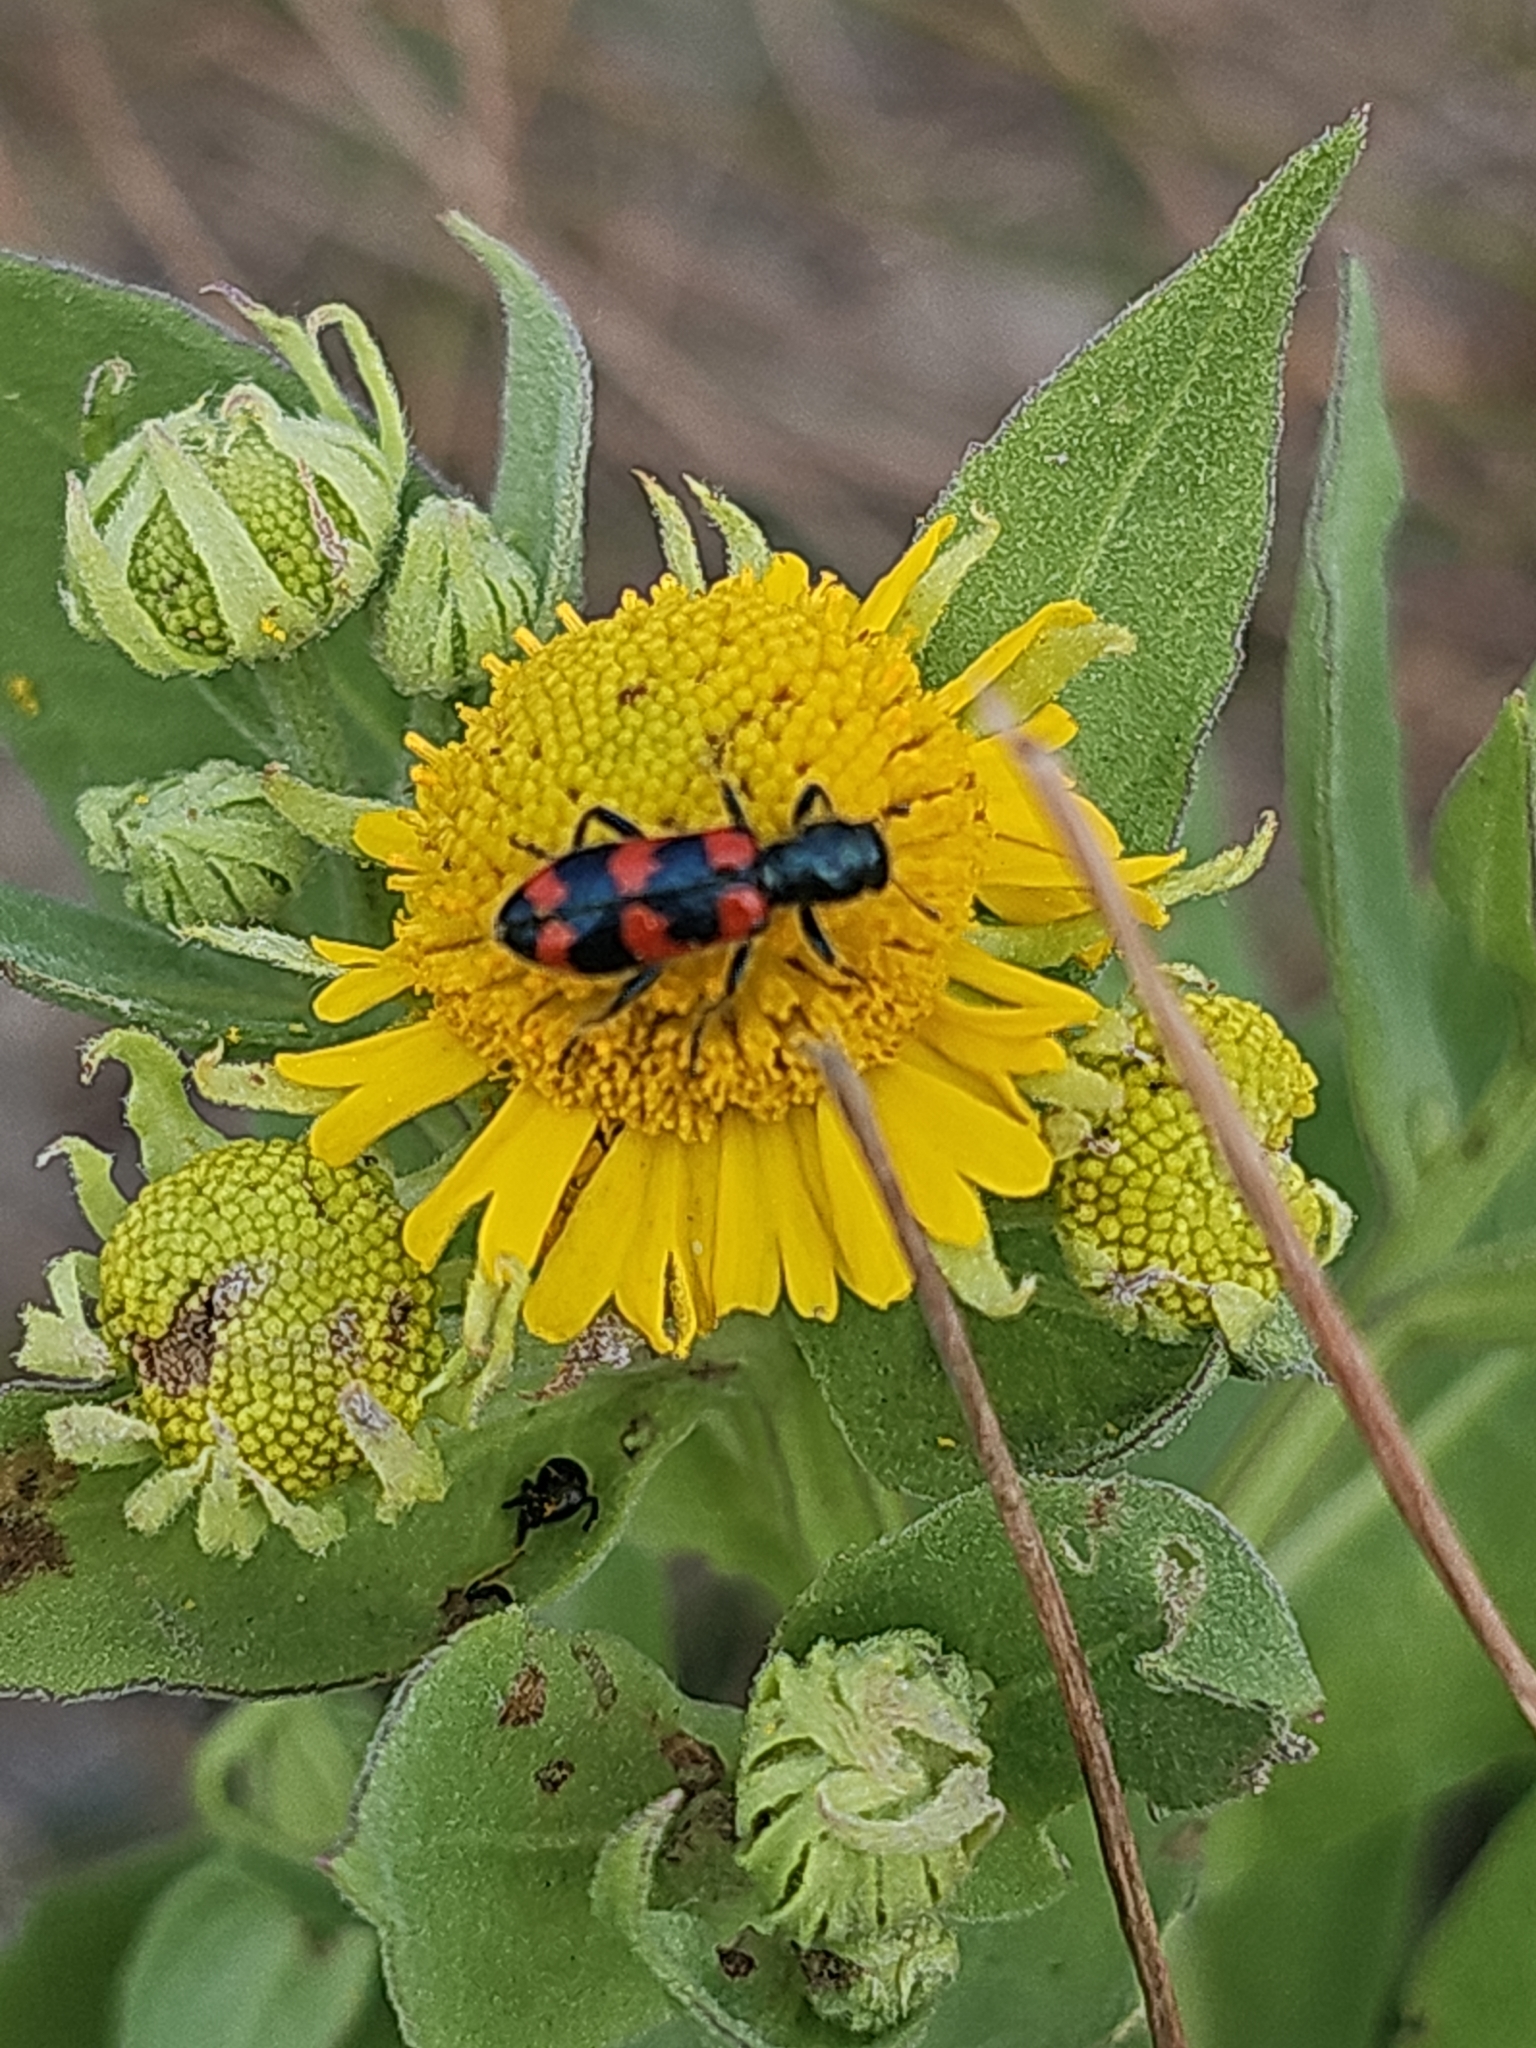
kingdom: Animalia
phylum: Arthropoda
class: Insecta
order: Coleoptera
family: Cleridae
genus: Trichodes
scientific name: Trichodes nutalli
